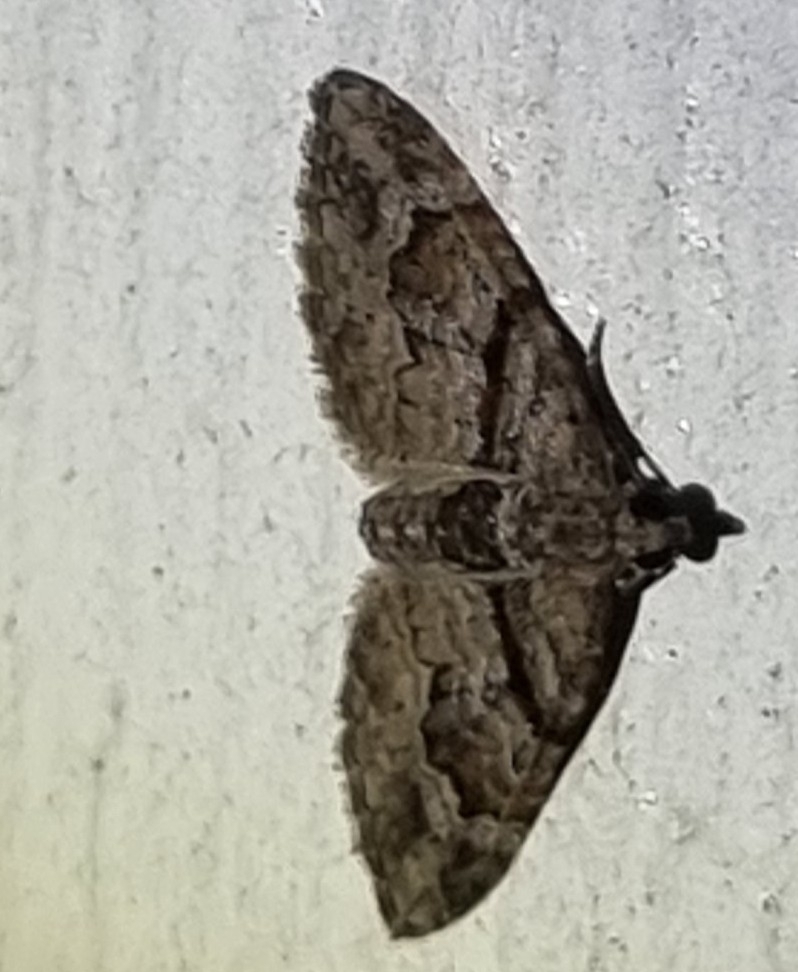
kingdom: Animalia
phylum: Arthropoda
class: Insecta
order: Lepidoptera
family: Geometridae
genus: Phrissogonus
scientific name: Phrissogonus laticostata
